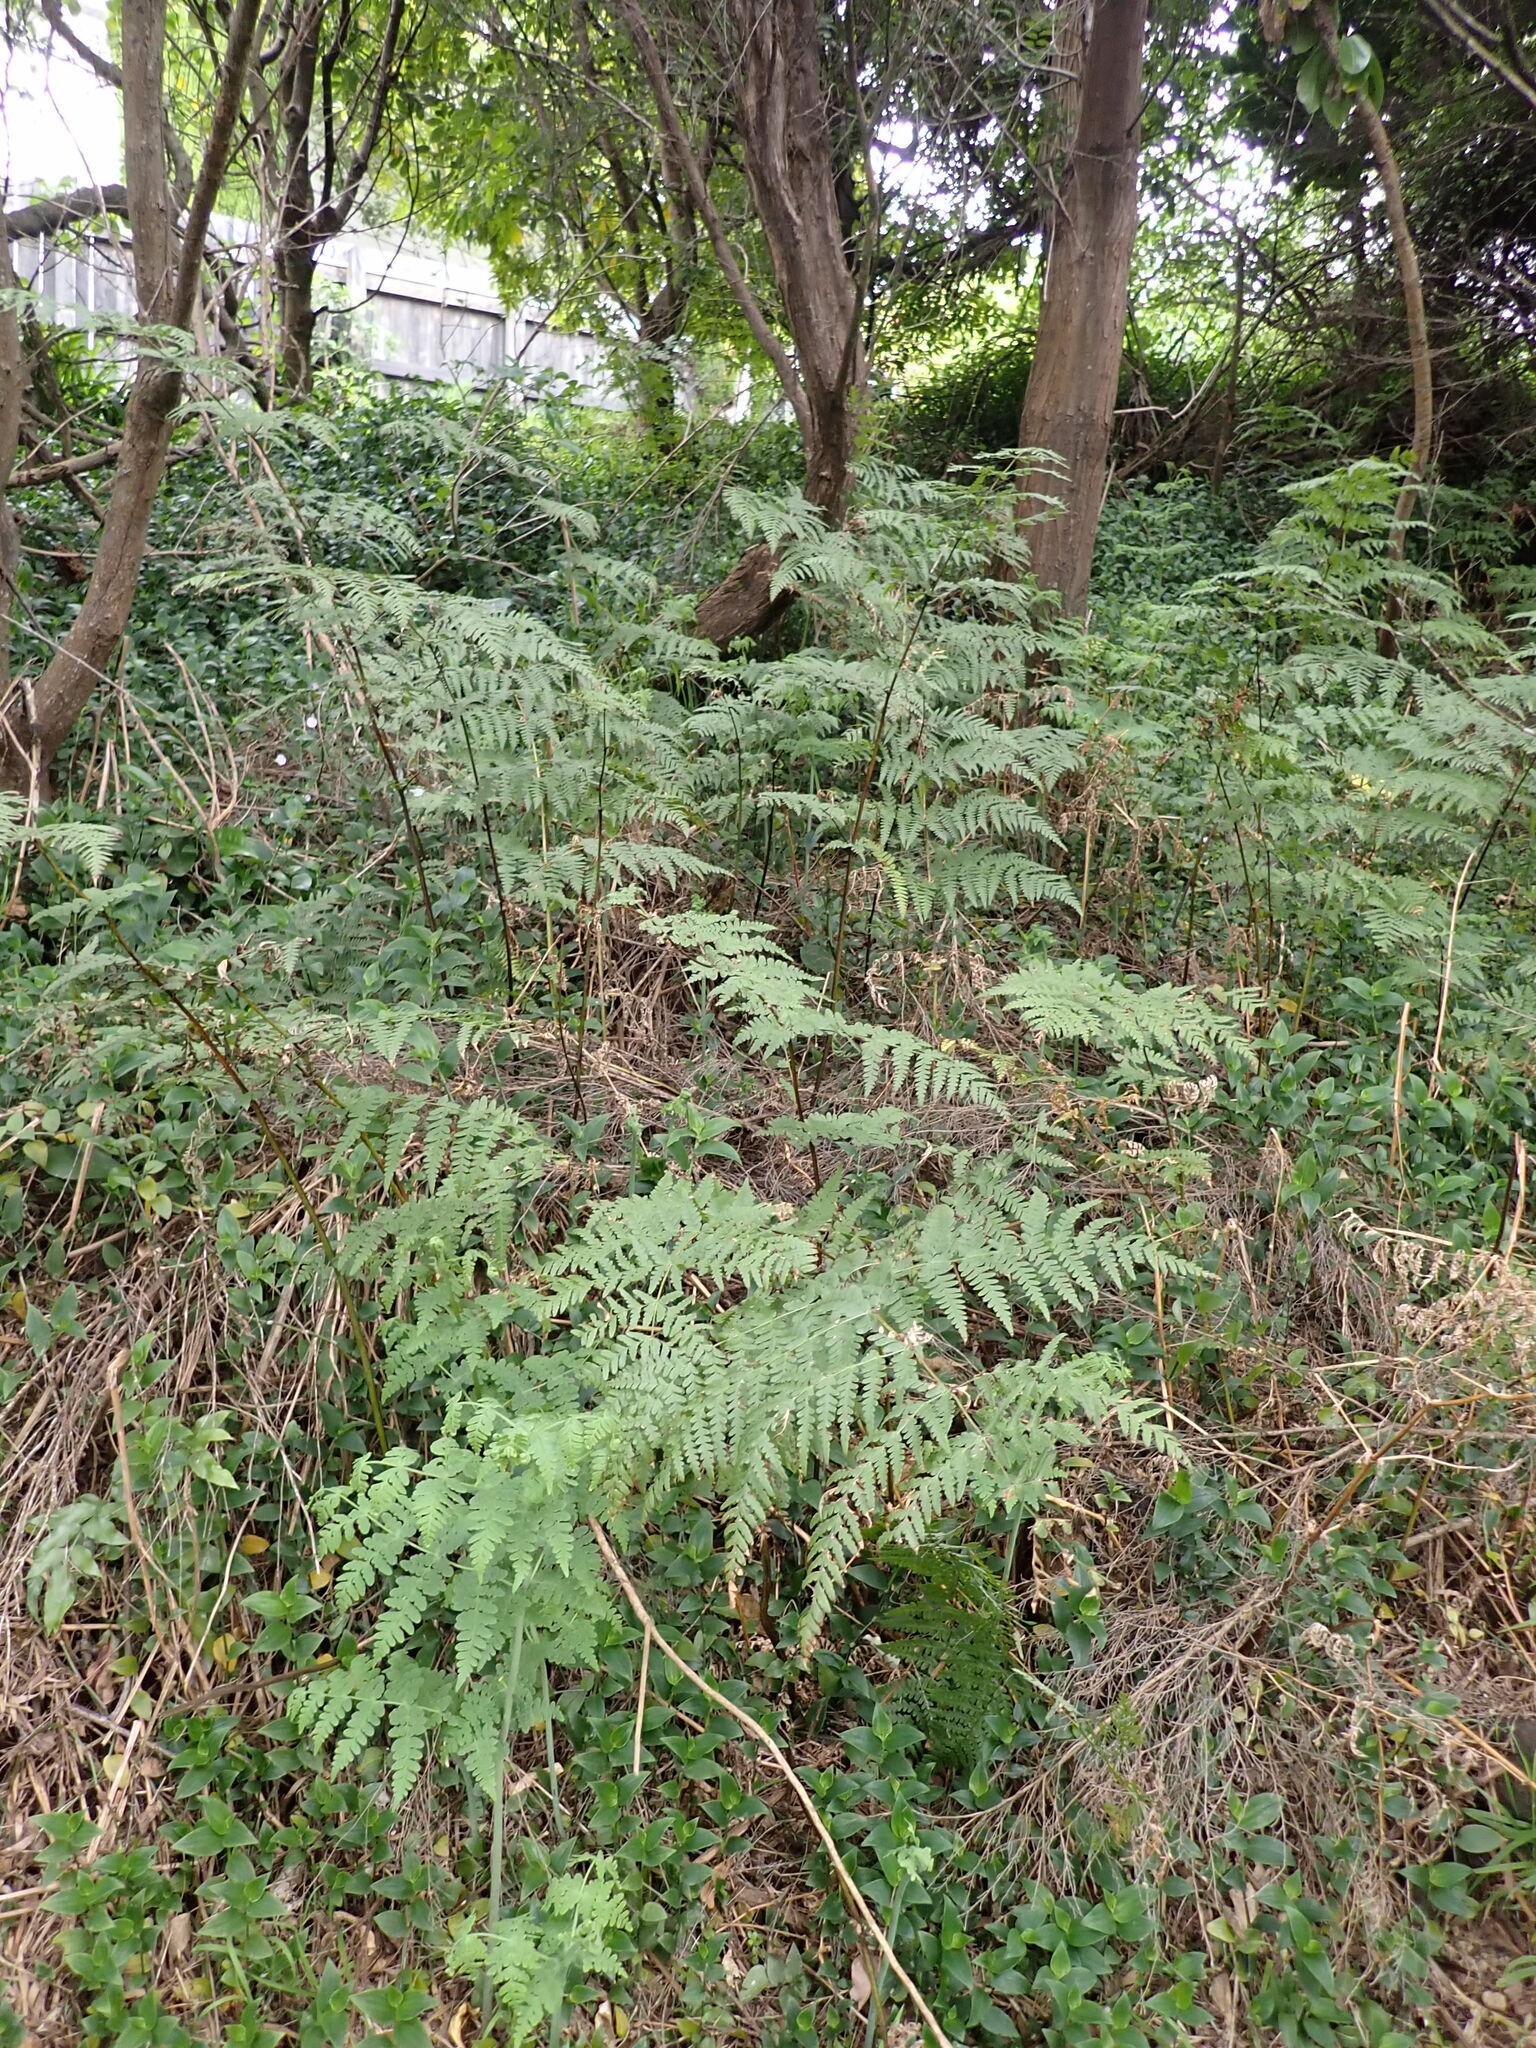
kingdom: Plantae
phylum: Tracheophyta
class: Polypodiopsida
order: Polypodiales
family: Dennstaedtiaceae
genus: Histiopteris
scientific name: Histiopteris incisa
